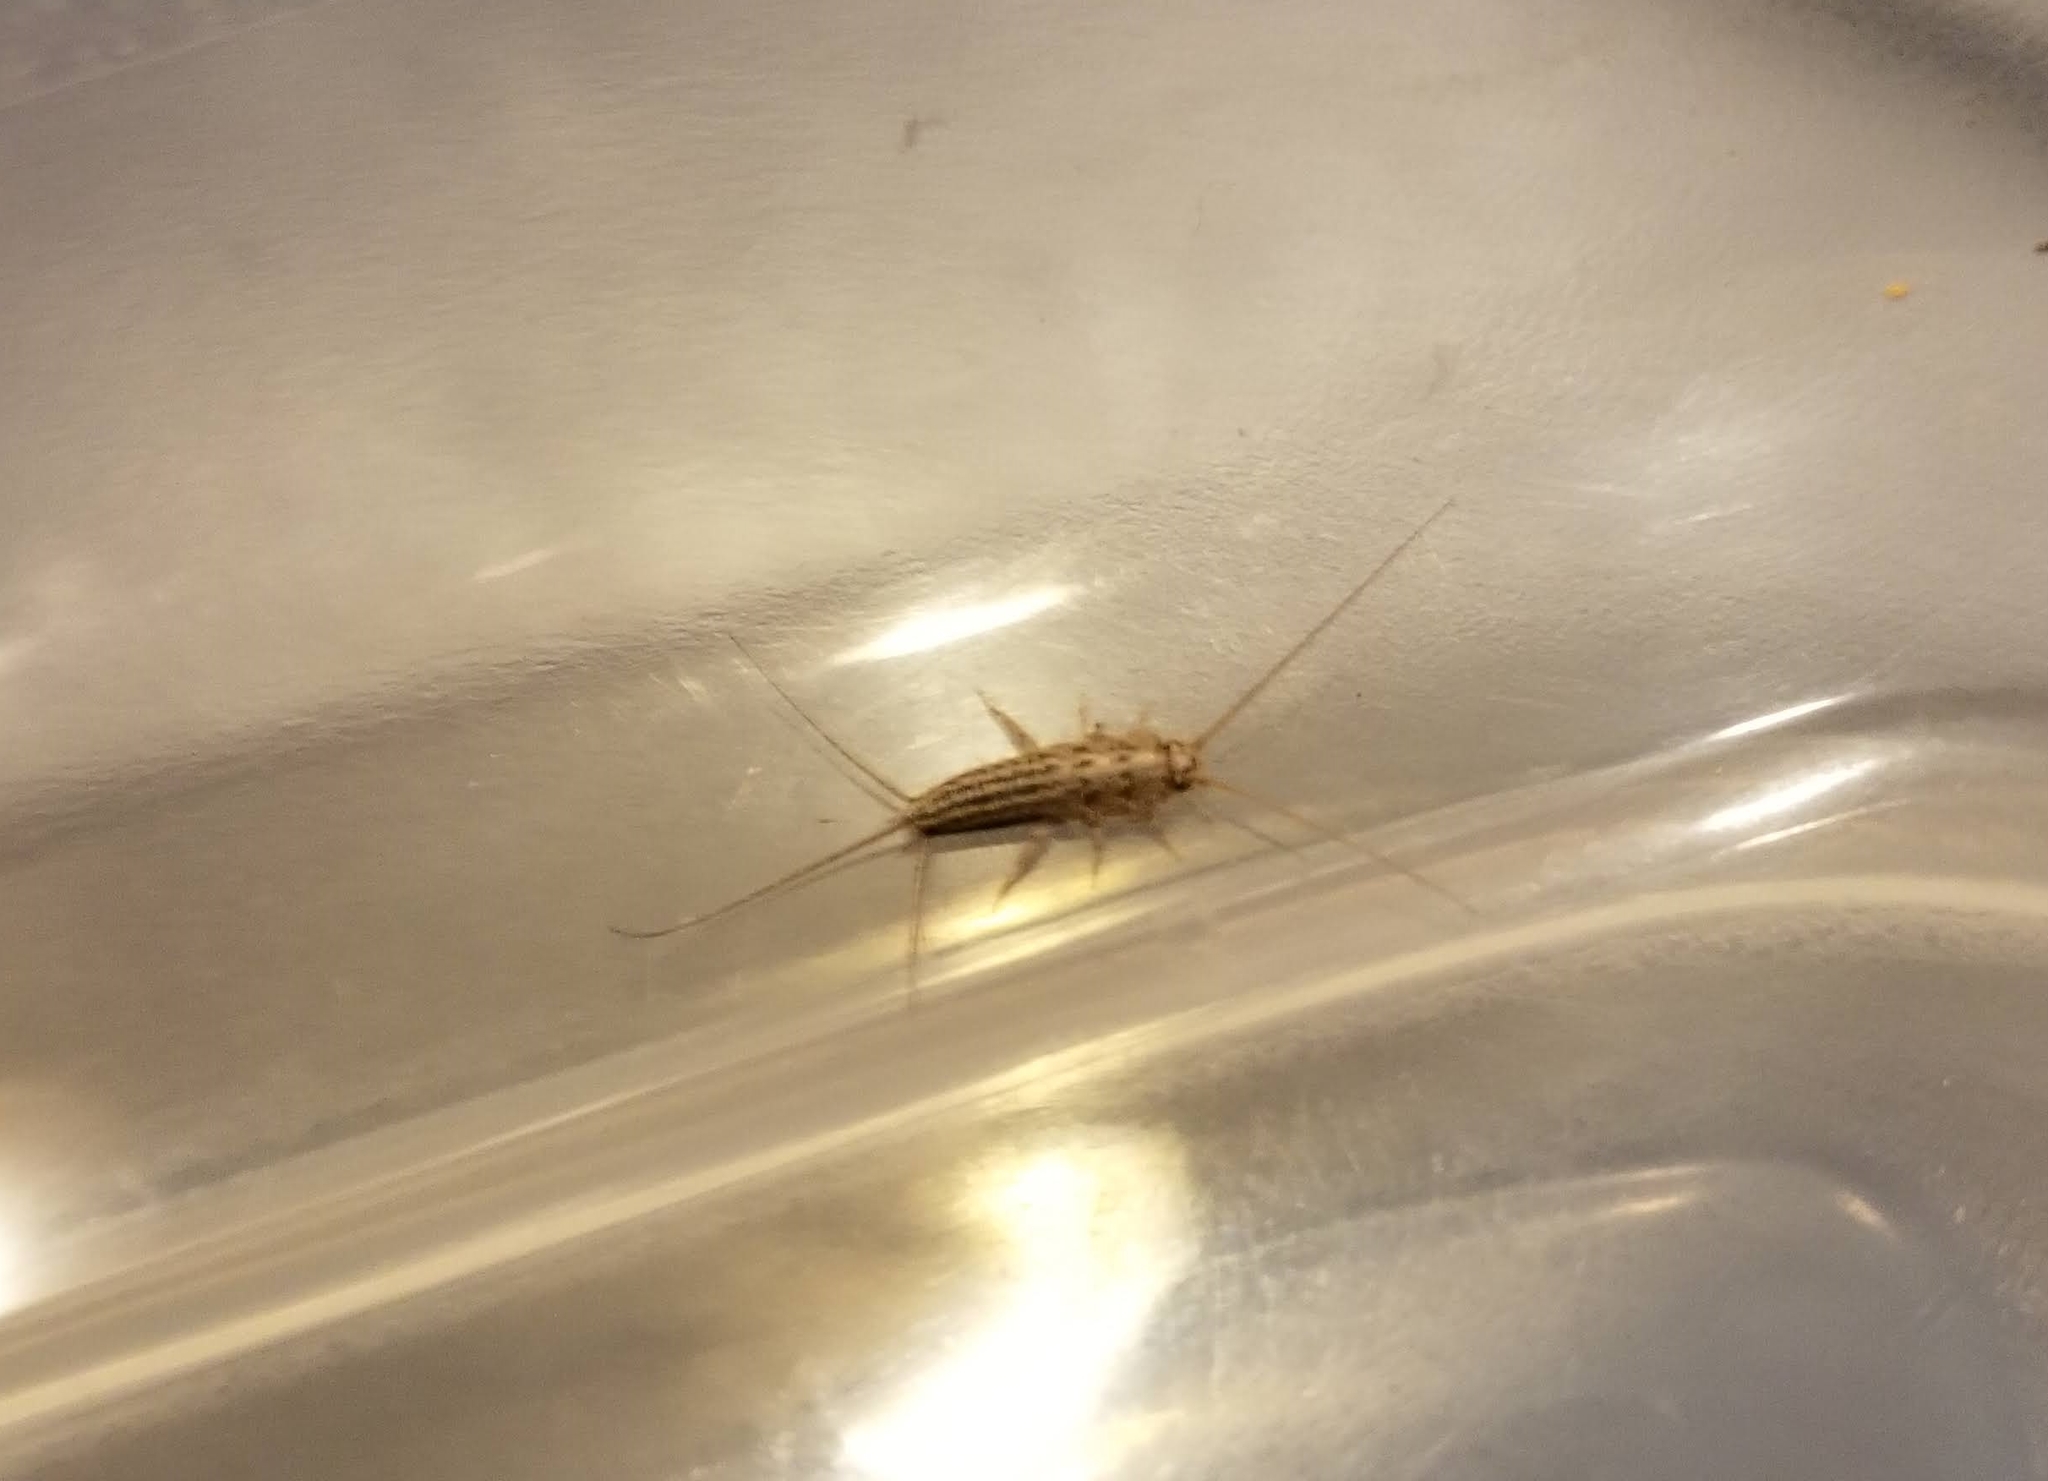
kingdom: Animalia
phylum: Arthropoda
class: Insecta
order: Zygentoma
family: Lepismatidae
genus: Ctenolepisma
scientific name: Ctenolepisma lineata
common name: Four-lined silverfish
